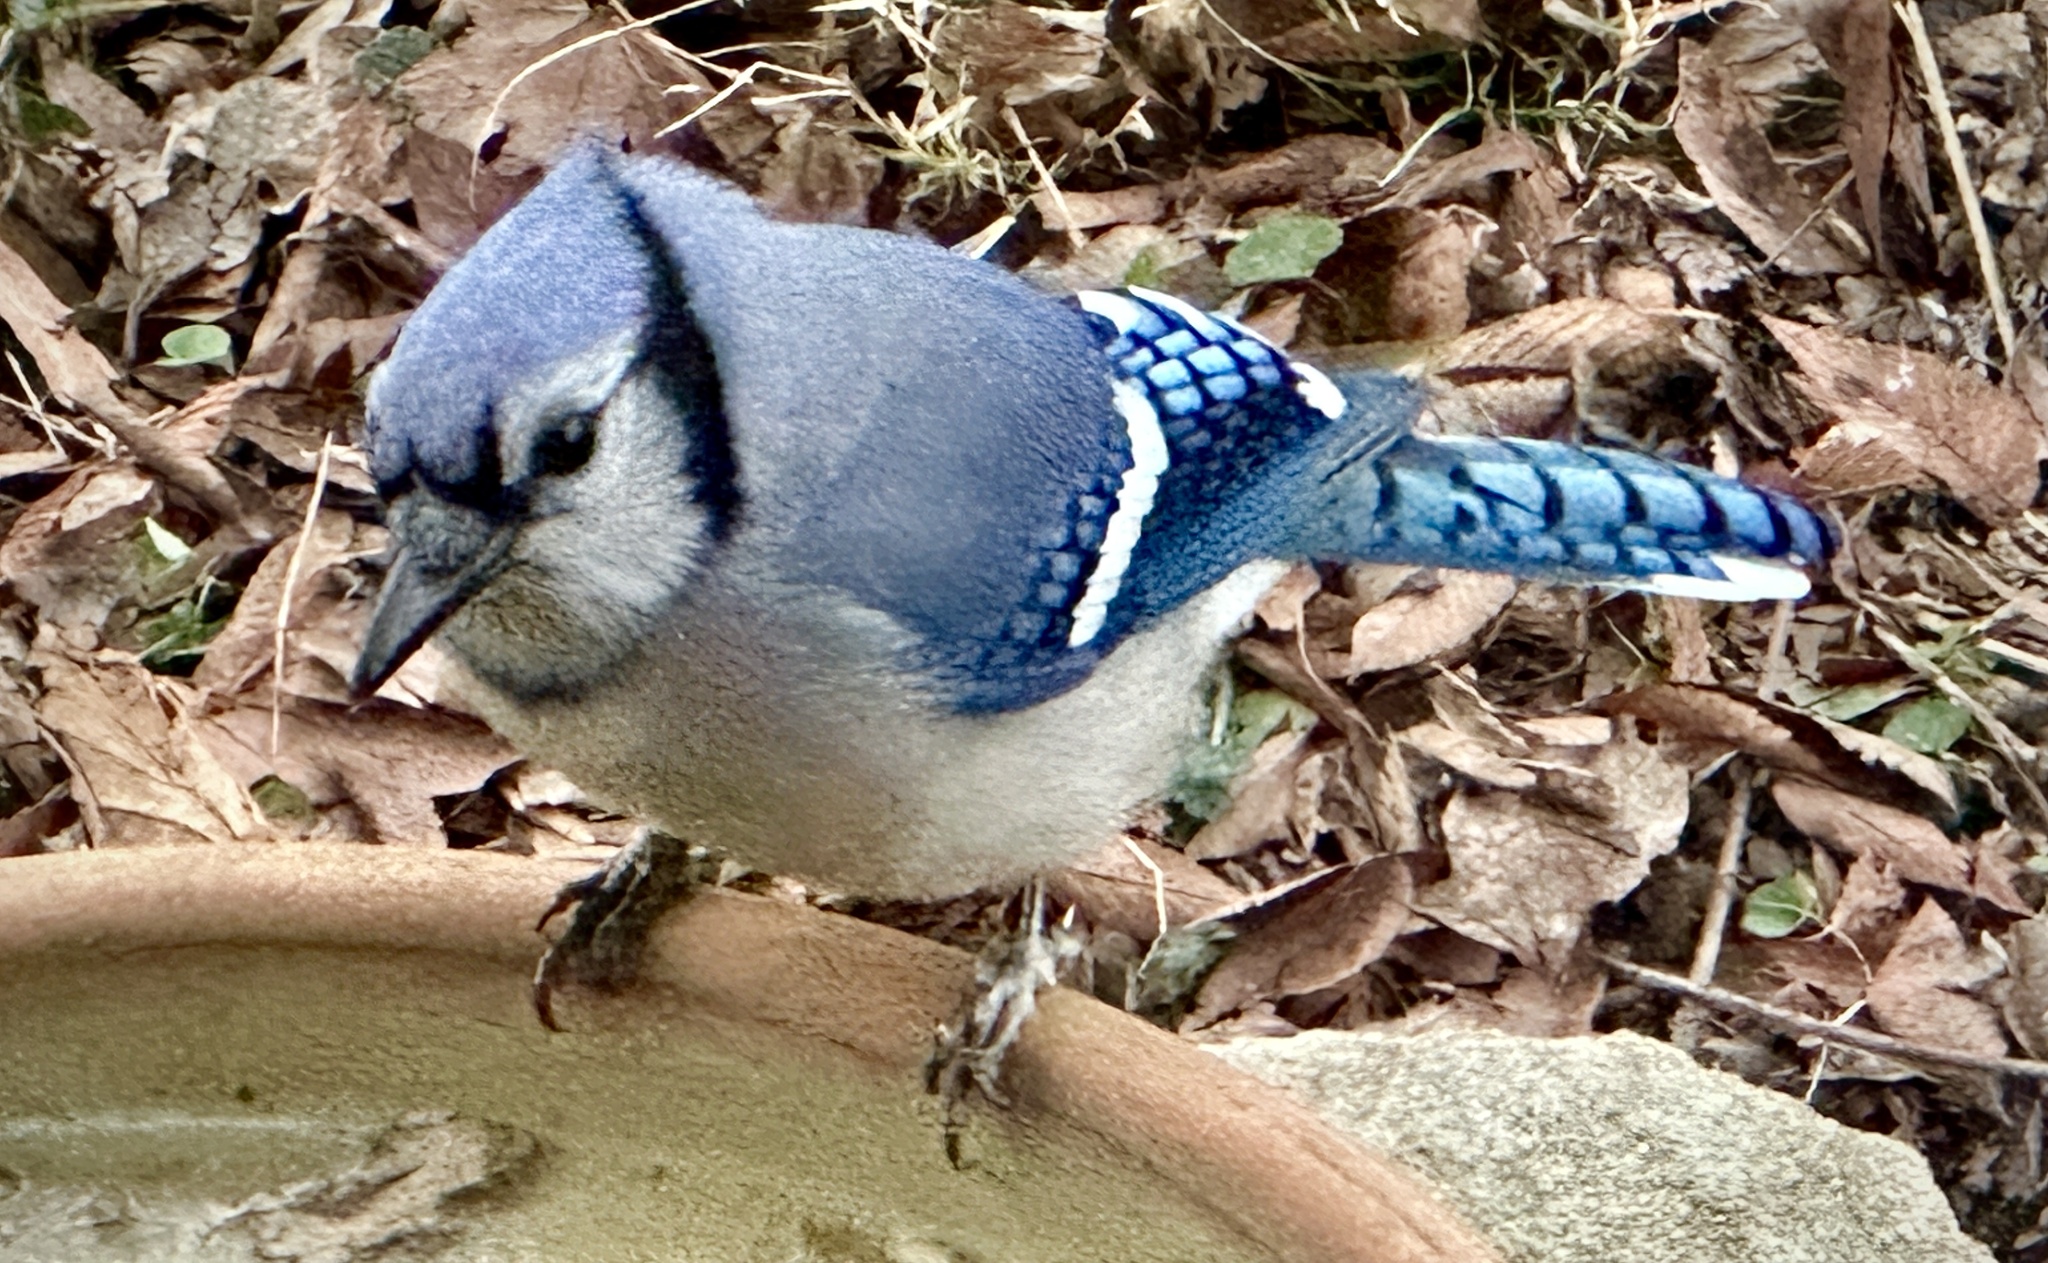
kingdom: Animalia
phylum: Chordata
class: Aves
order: Passeriformes
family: Corvidae
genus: Cyanocitta
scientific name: Cyanocitta cristata
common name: Blue jay
